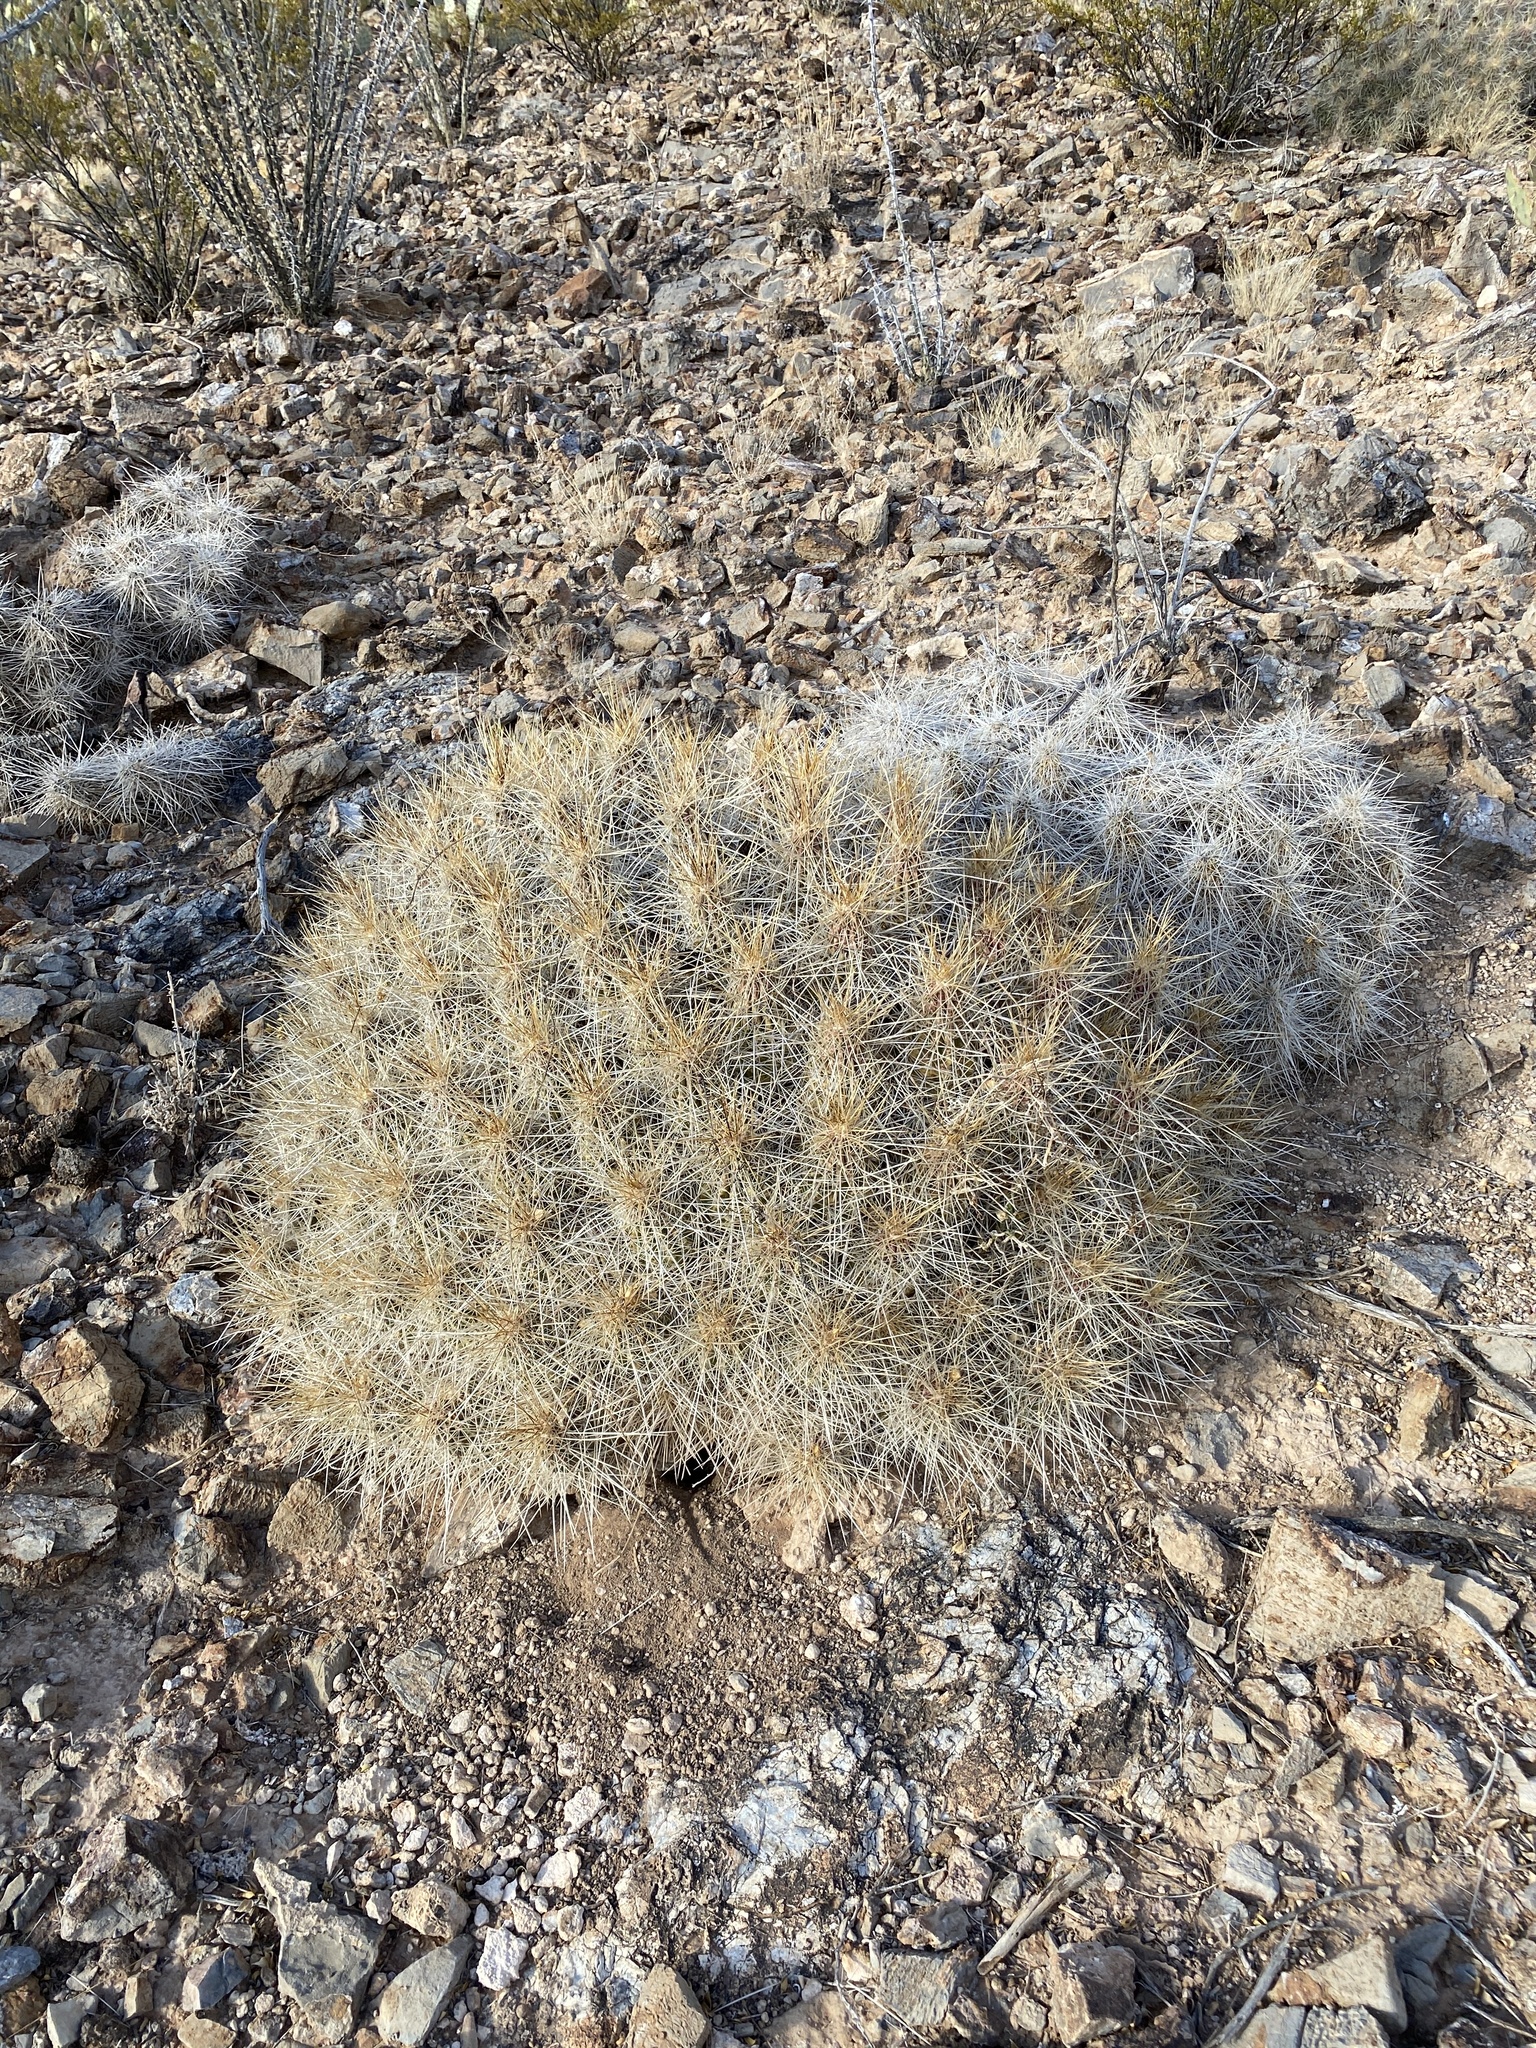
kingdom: Plantae
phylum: Tracheophyta
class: Magnoliopsida
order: Caryophyllales
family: Cactaceae
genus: Echinocereus
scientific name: Echinocereus stramineus
